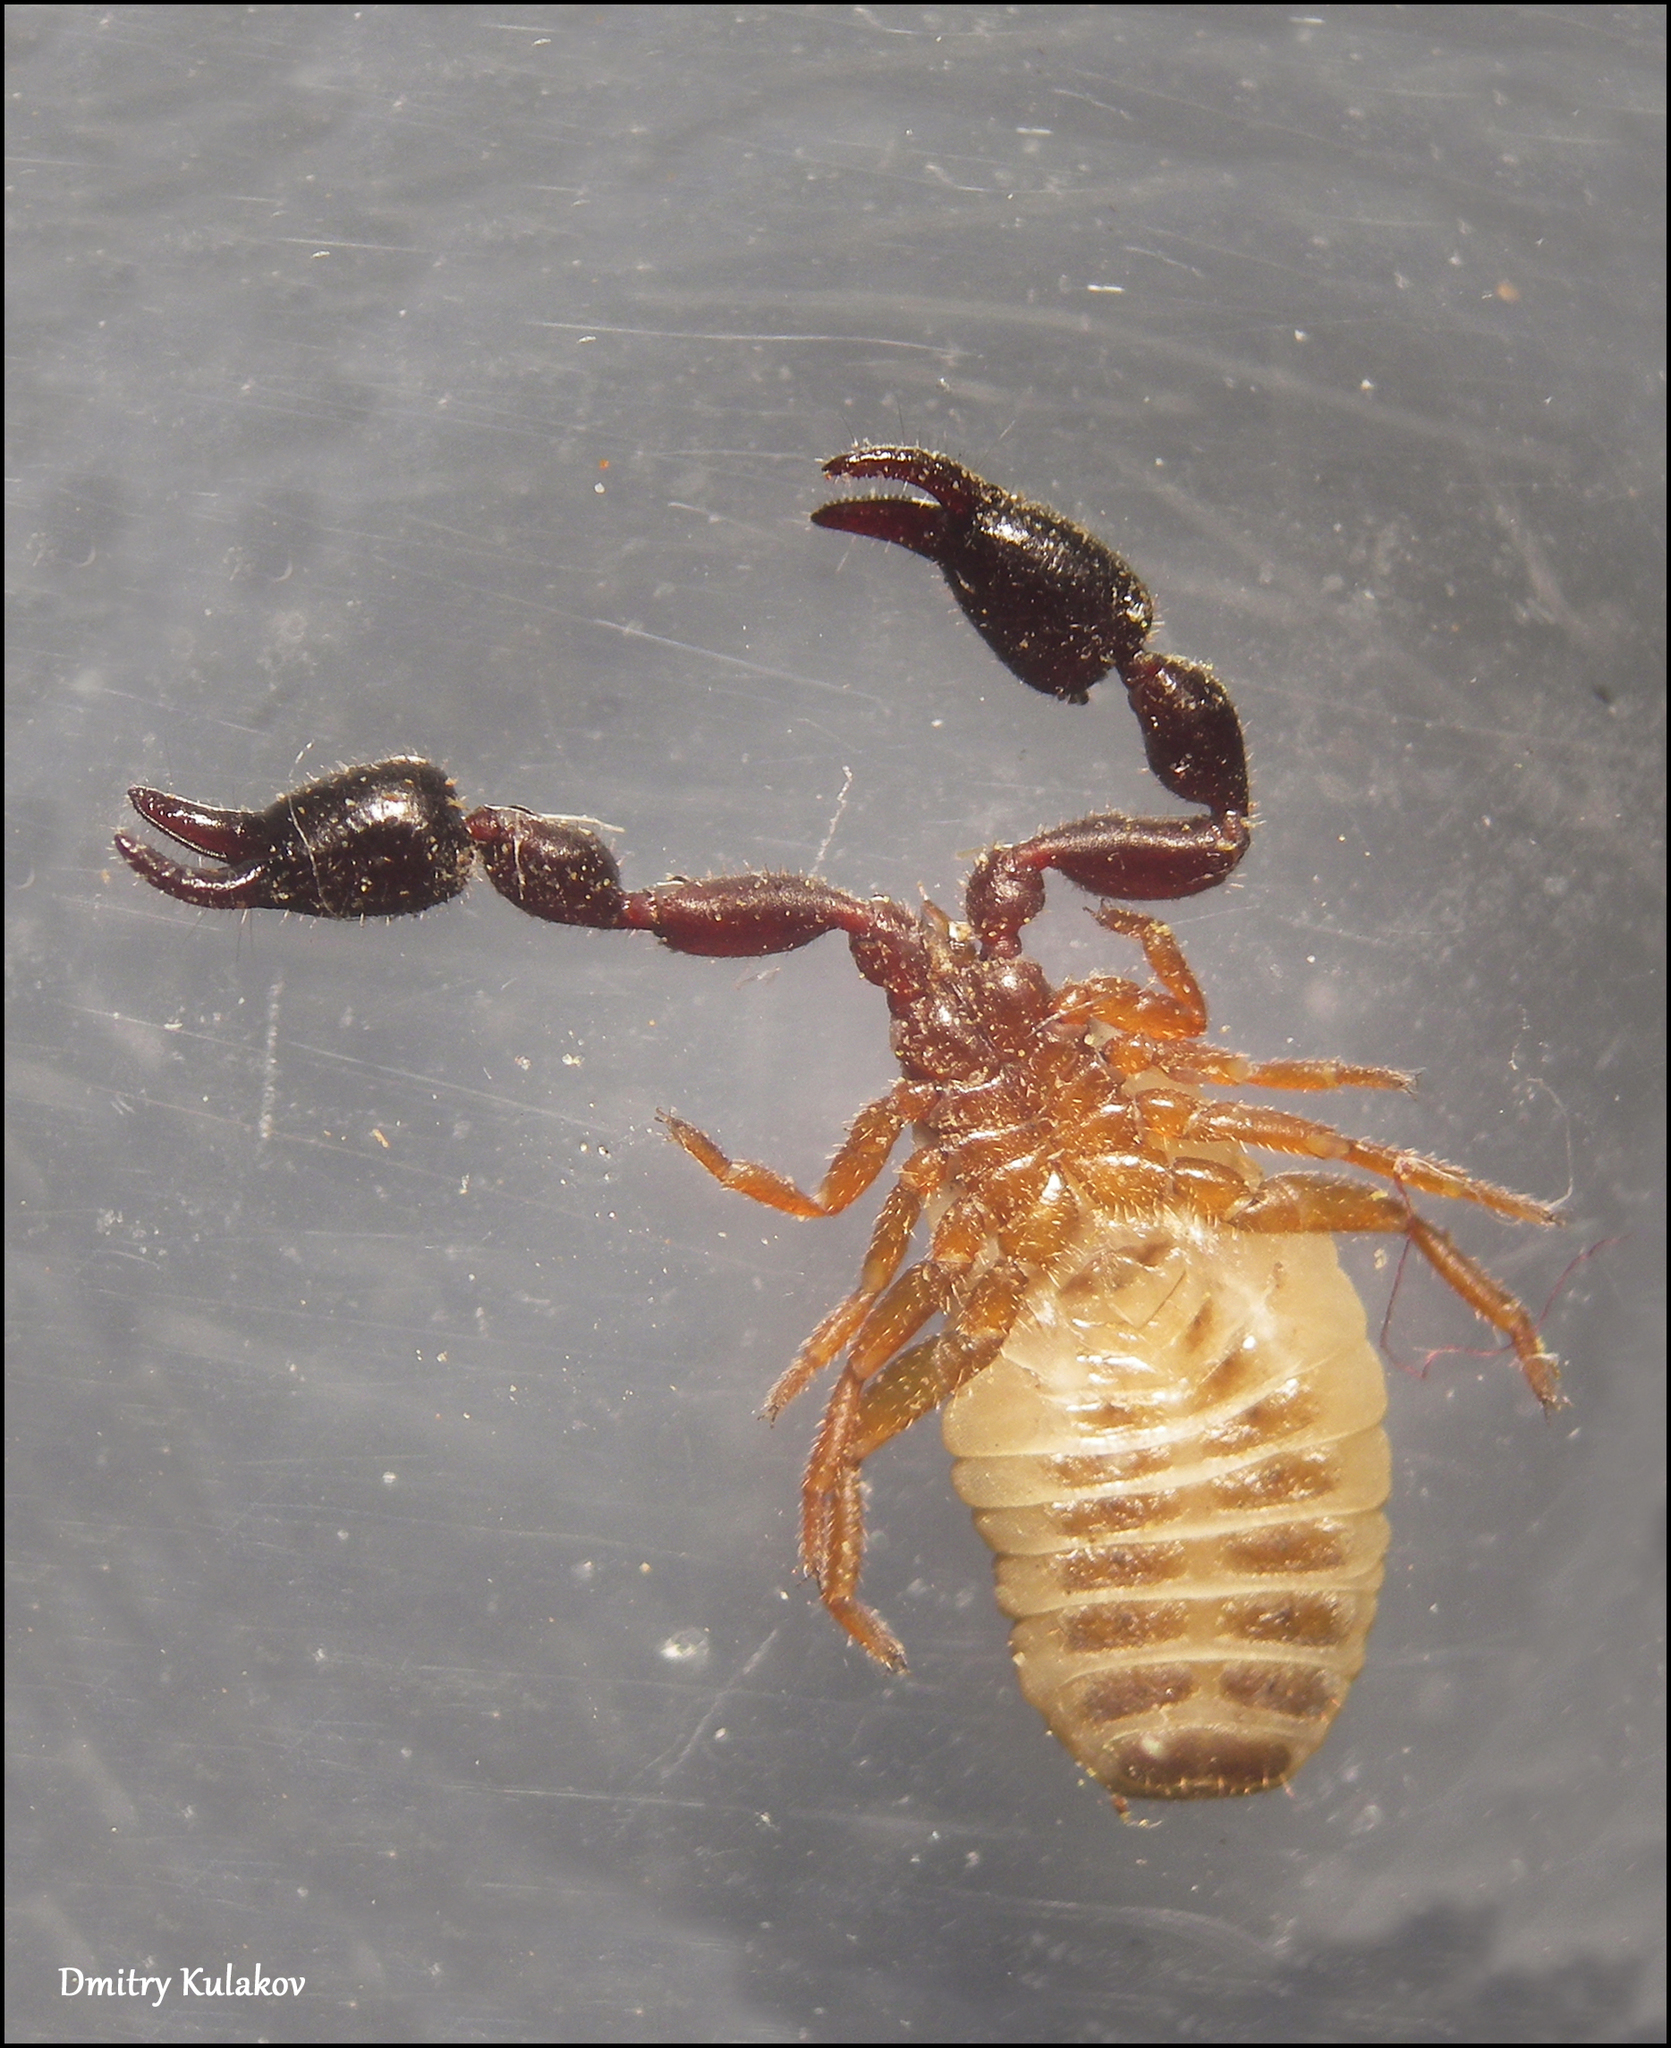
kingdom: Animalia
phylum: Arthropoda
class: Arachnida
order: Pseudoscorpiones
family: Chernetidae
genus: Dendrochernes
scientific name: Dendrochernes cyrneus
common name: Large tree-chernes
